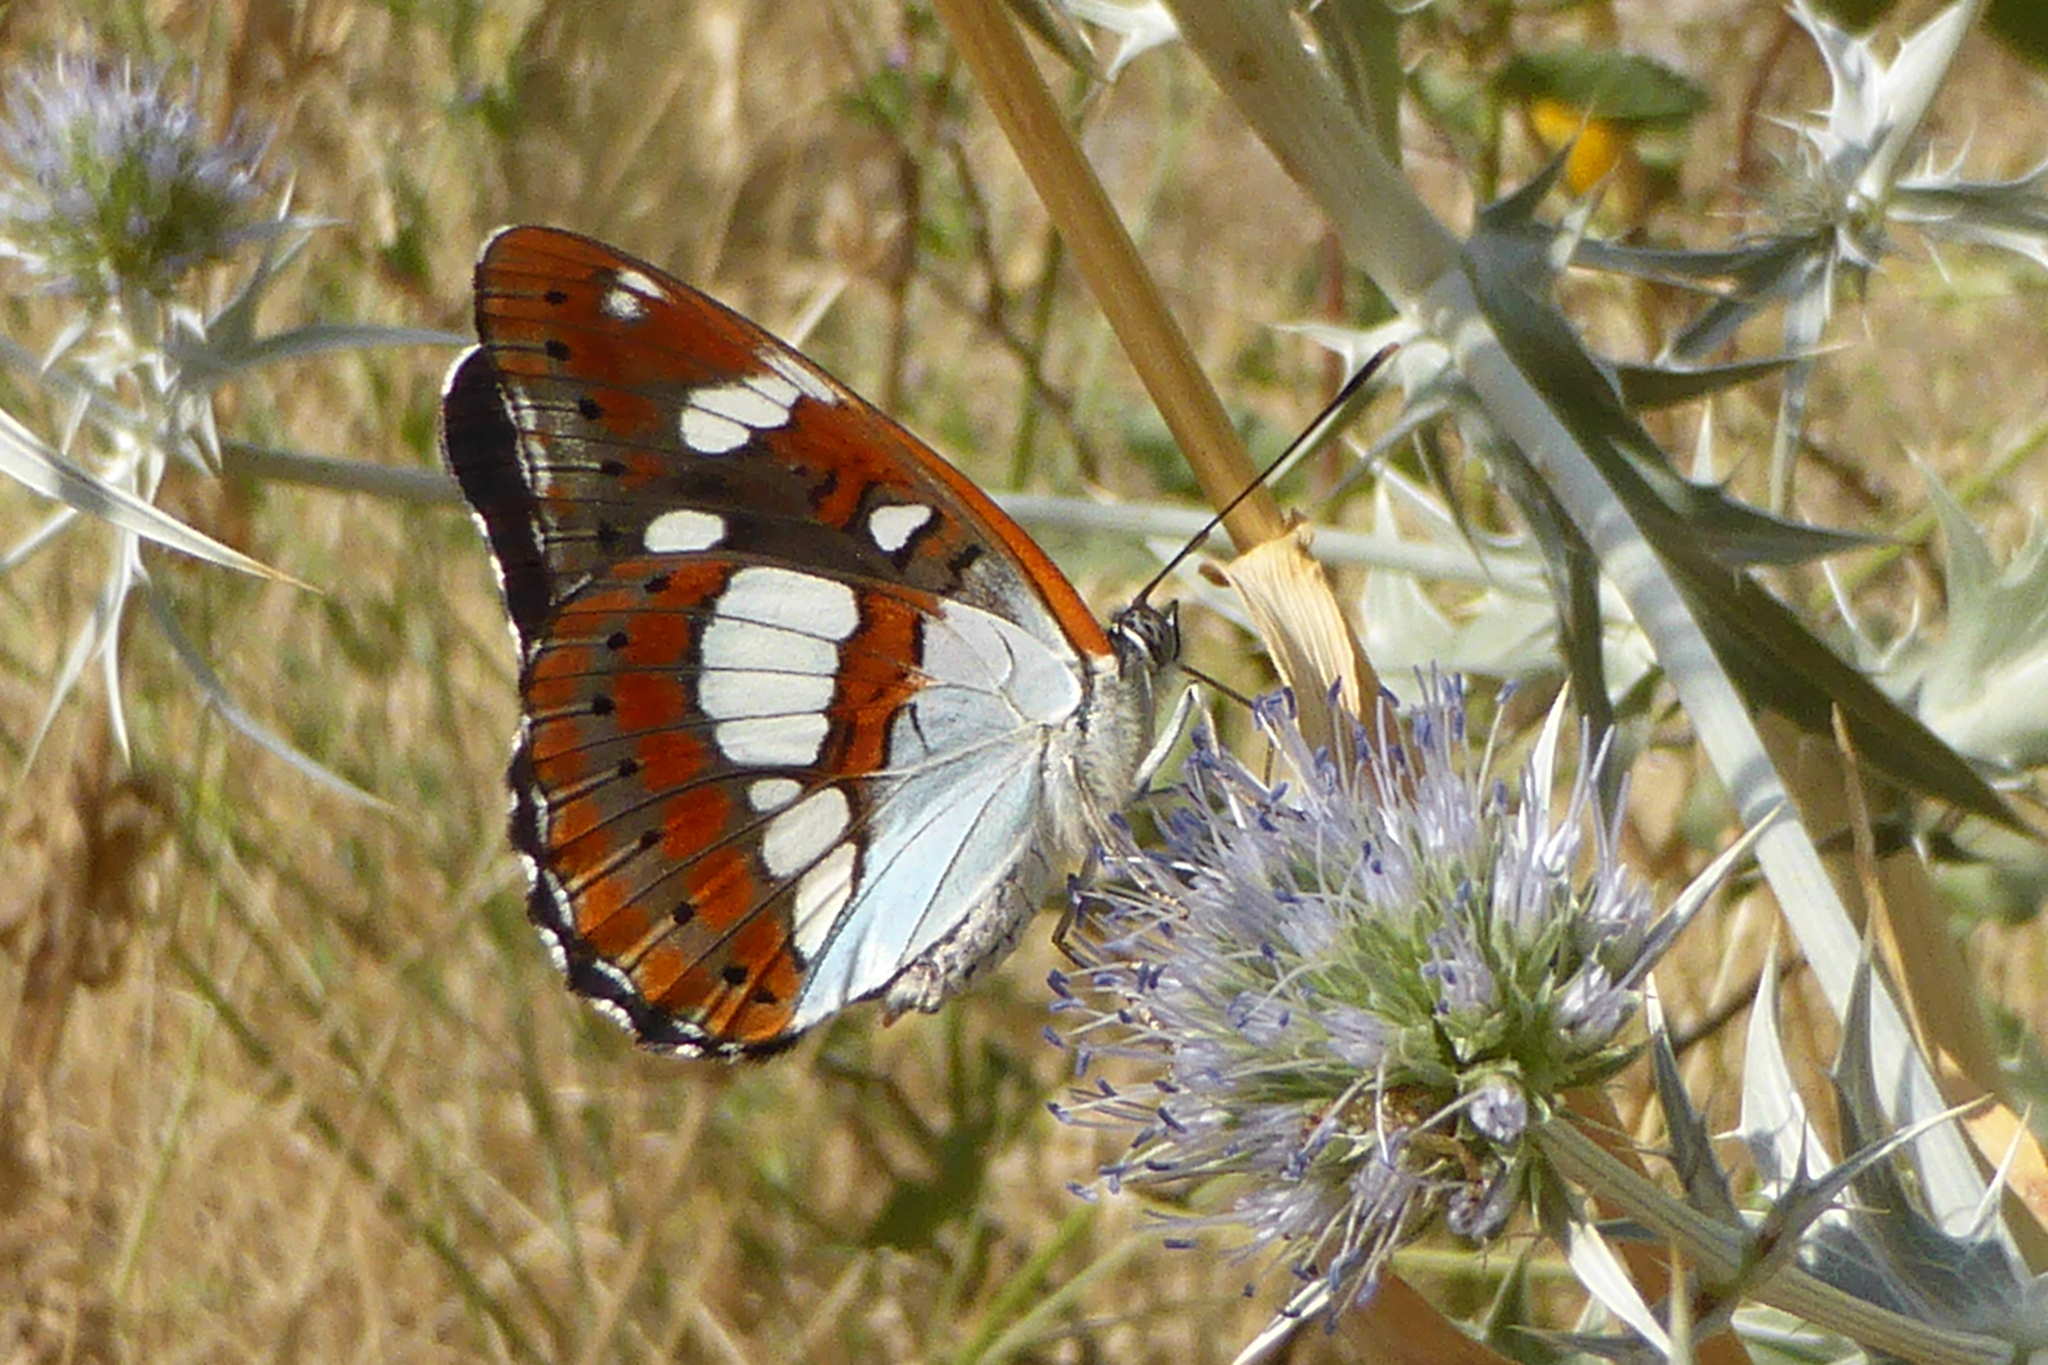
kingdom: Animalia
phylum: Arthropoda
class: Insecta
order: Lepidoptera
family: Nymphalidae
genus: Limenitis
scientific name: Limenitis reducta
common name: Southern white admiral
